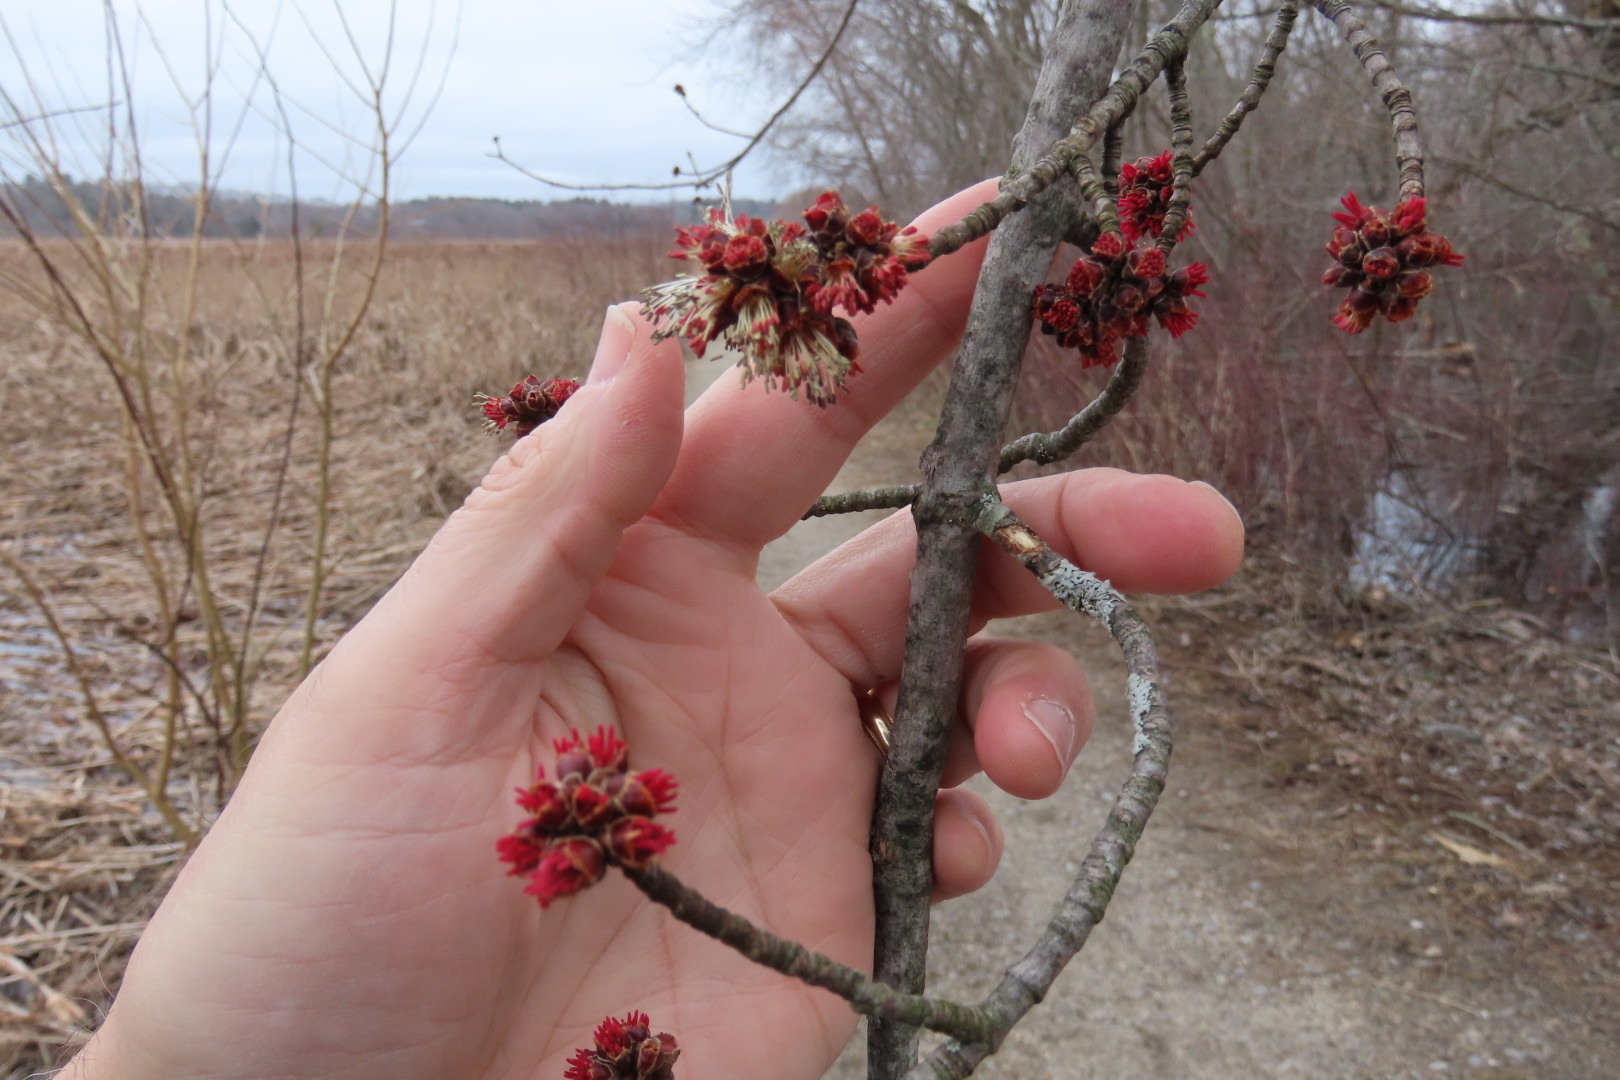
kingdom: Plantae
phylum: Tracheophyta
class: Magnoliopsida
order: Sapindales
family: Sapindaceae
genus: Acer
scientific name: Acer saccharinum
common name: Silver maple
